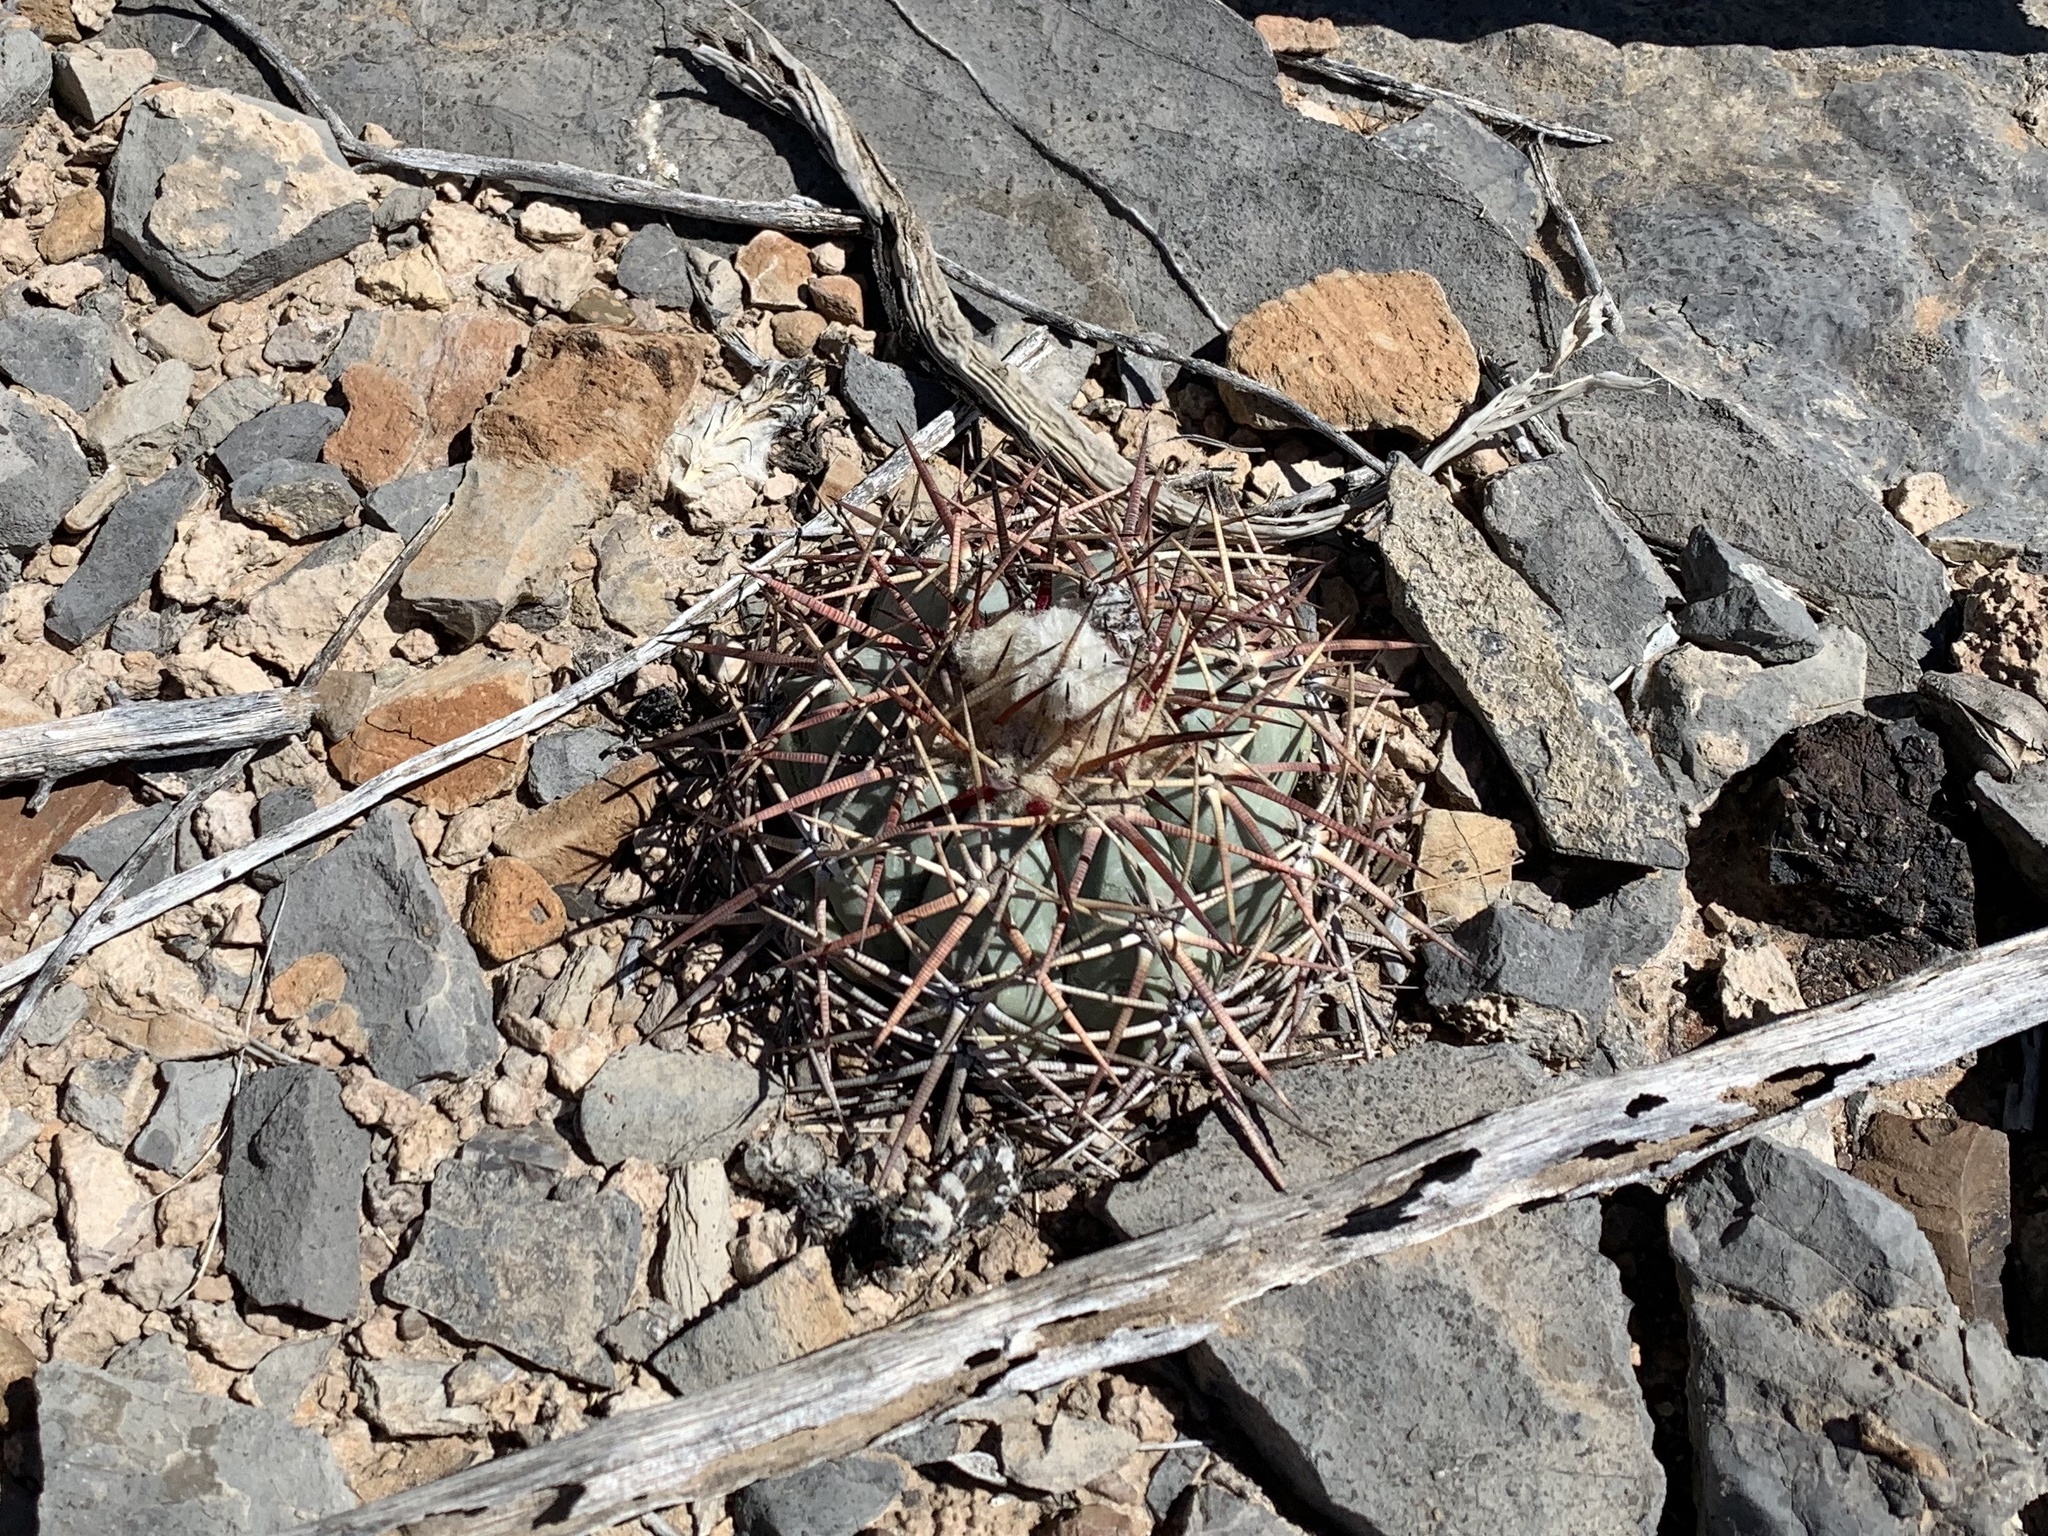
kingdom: Plantae
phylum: Tracheophyta
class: Magnoliopsida
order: Caryophyllales
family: Cactaceae
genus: Echinocactus
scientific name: Echinocactus horizonthalonius
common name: Devilshead
